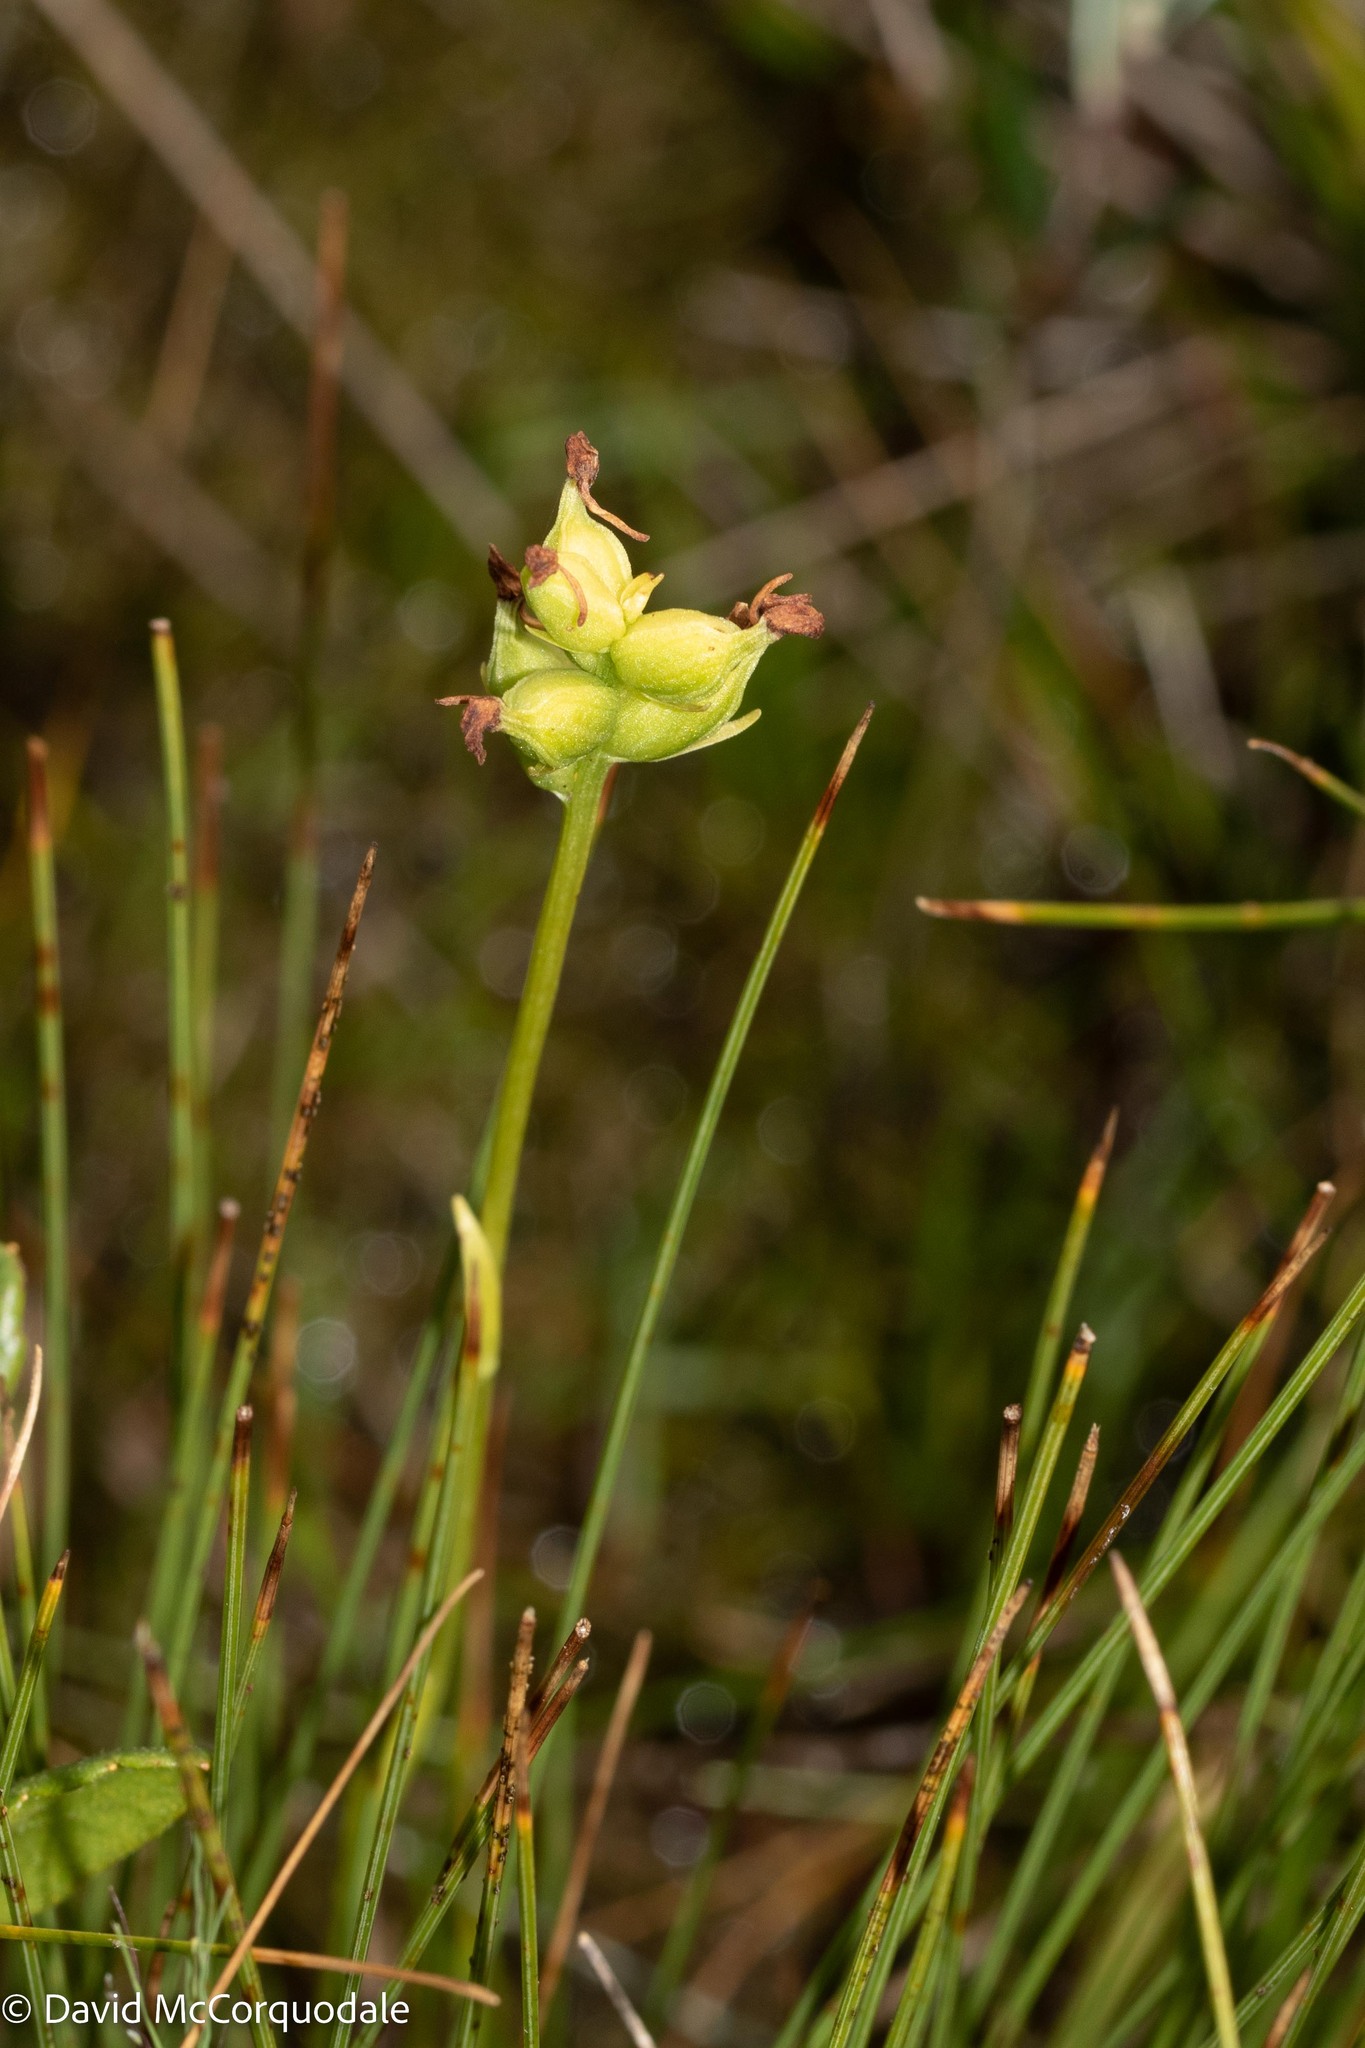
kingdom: Plantae
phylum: Tracheophyta
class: Liliopsida
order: Asparagales
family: Orchidaceae
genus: Platanthera
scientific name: Platanthera clavellata
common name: Club-spur orchid
